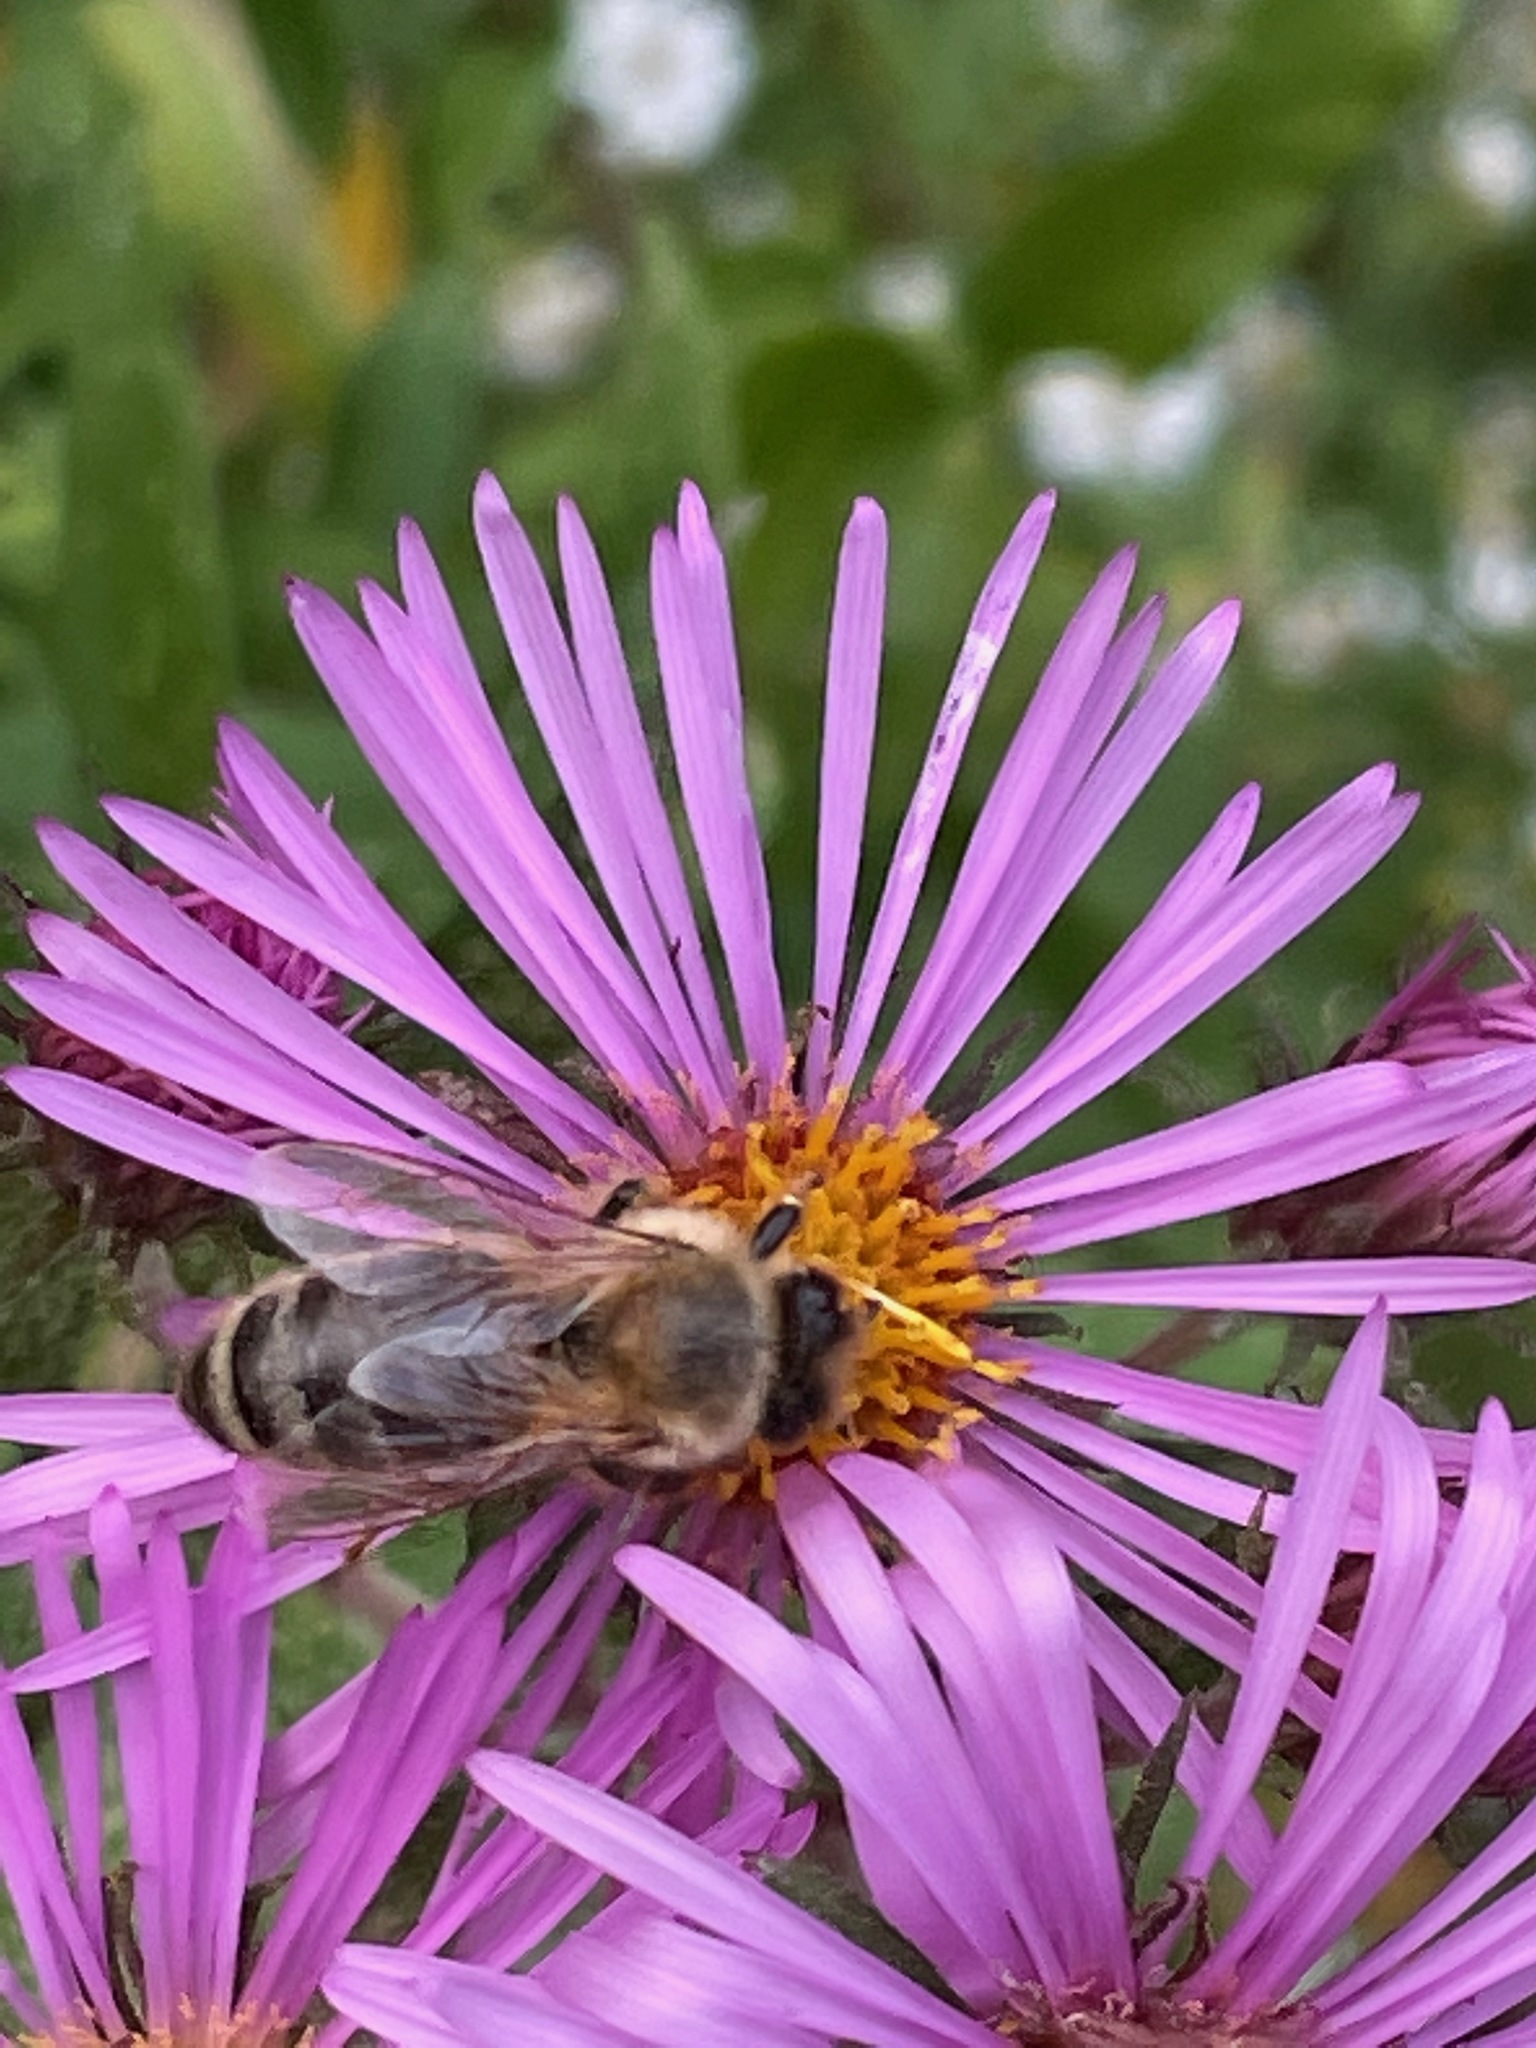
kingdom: Animalia
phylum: Arthropoda
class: Insecta
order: Hymenoptera
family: Apidae
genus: Apis
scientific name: Apis mellifera
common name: Honey bee
